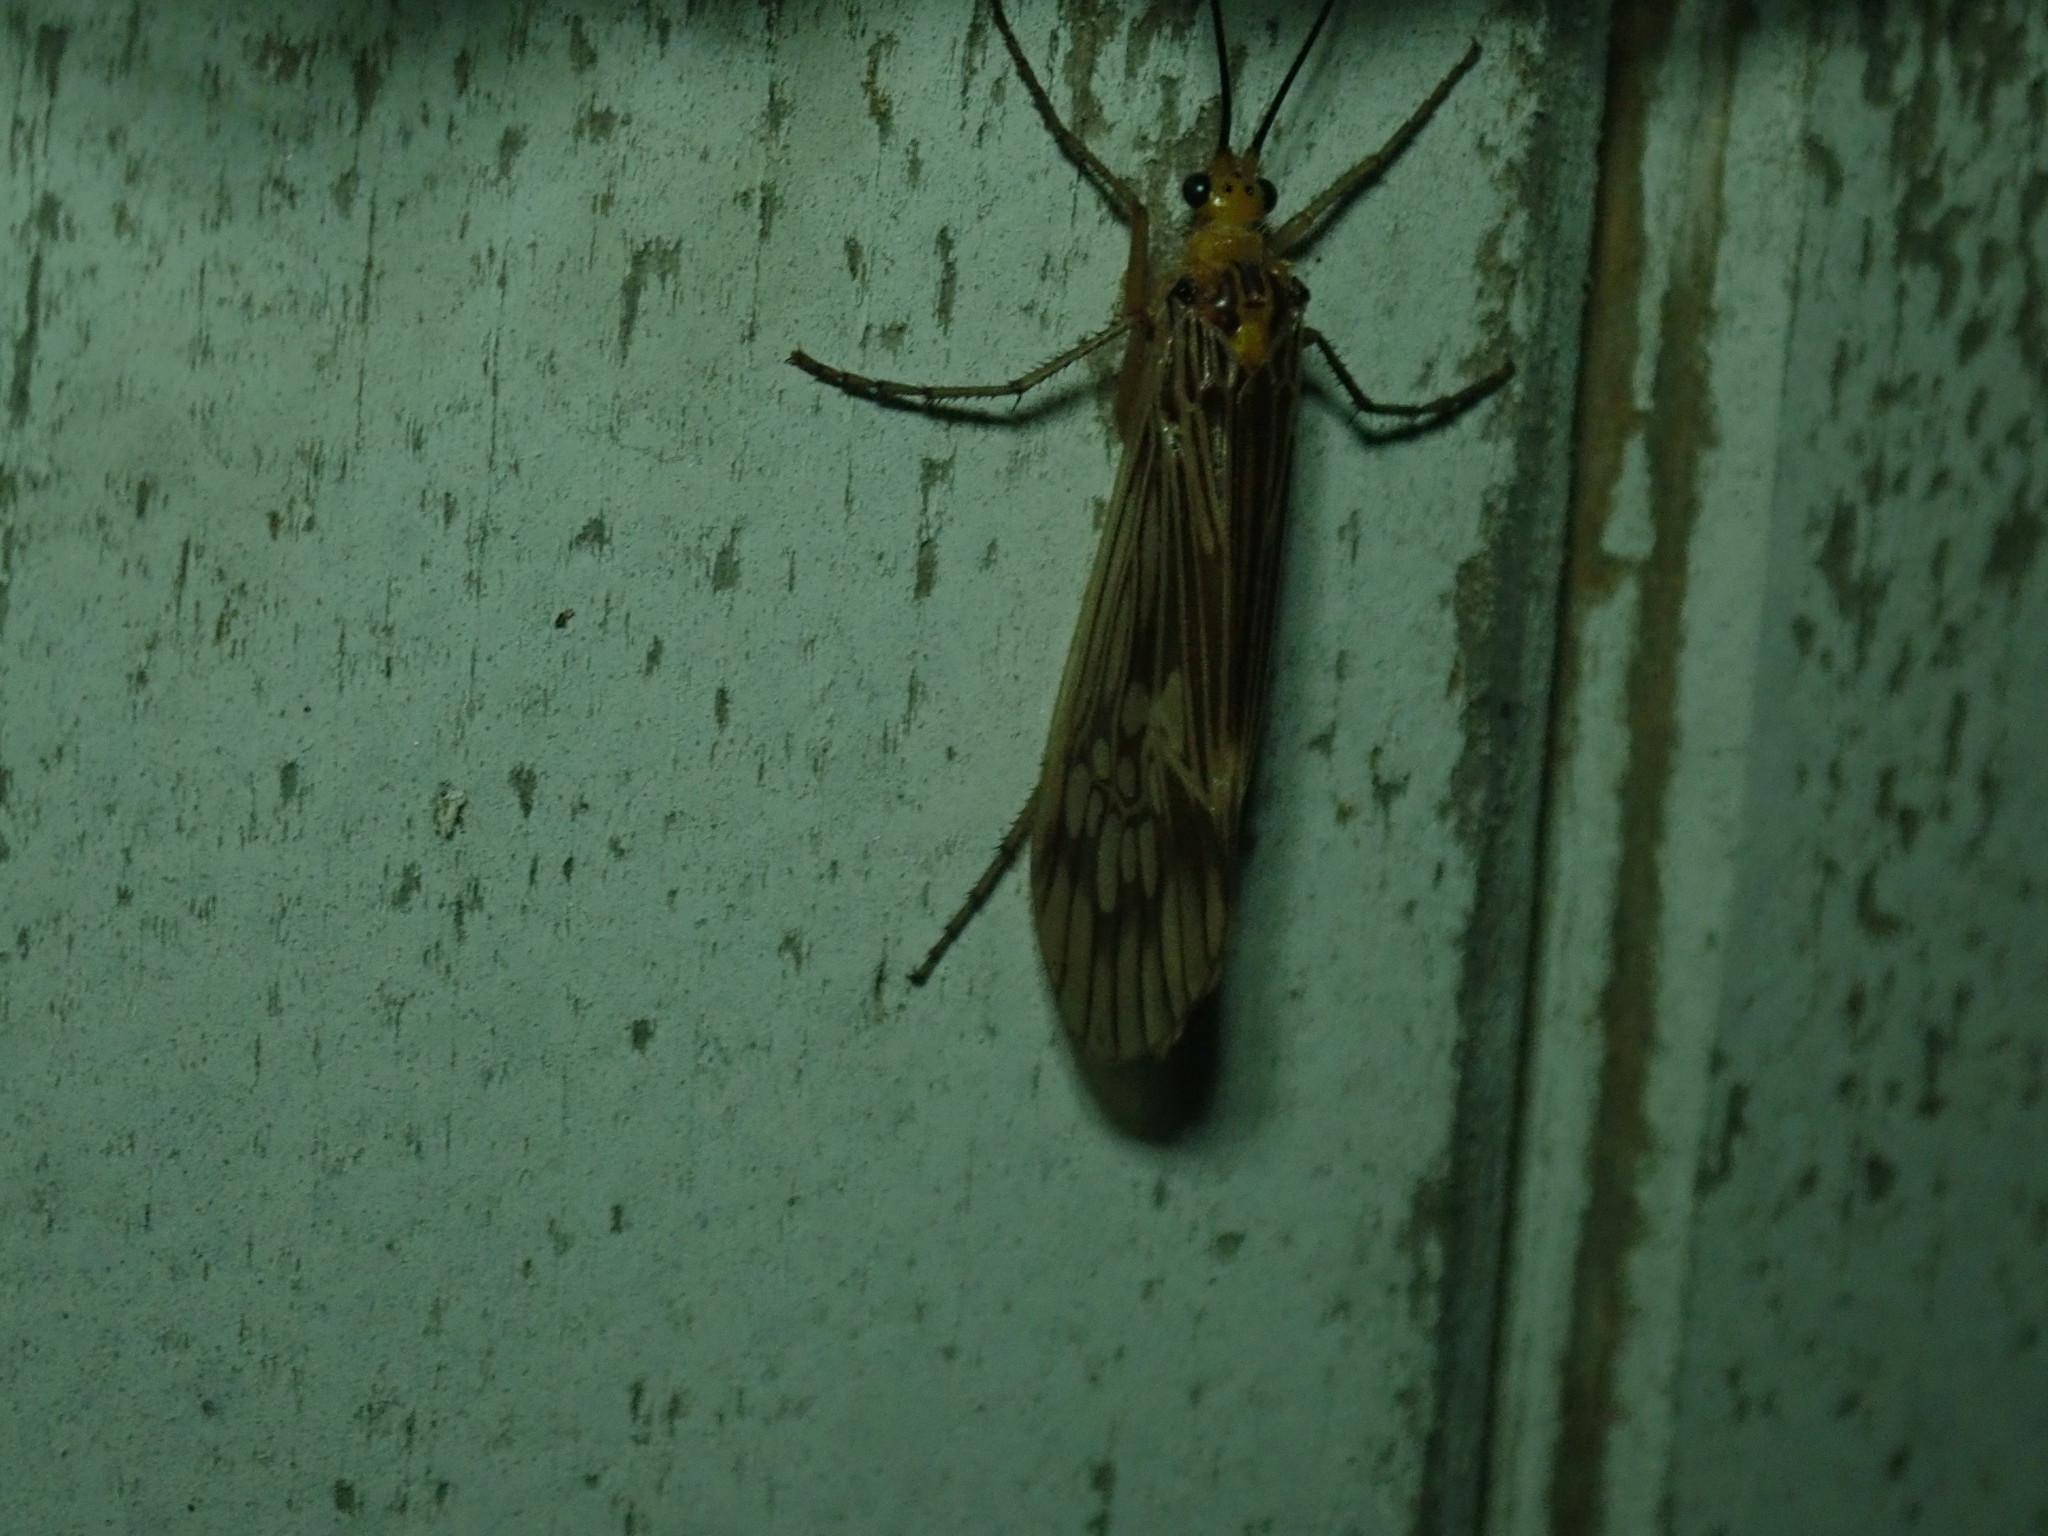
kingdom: Animalia
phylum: Arthropoda
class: Insecta
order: Trichoptera
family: Limnephilidae
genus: Hydatophylax
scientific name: Hydatophylax argus
